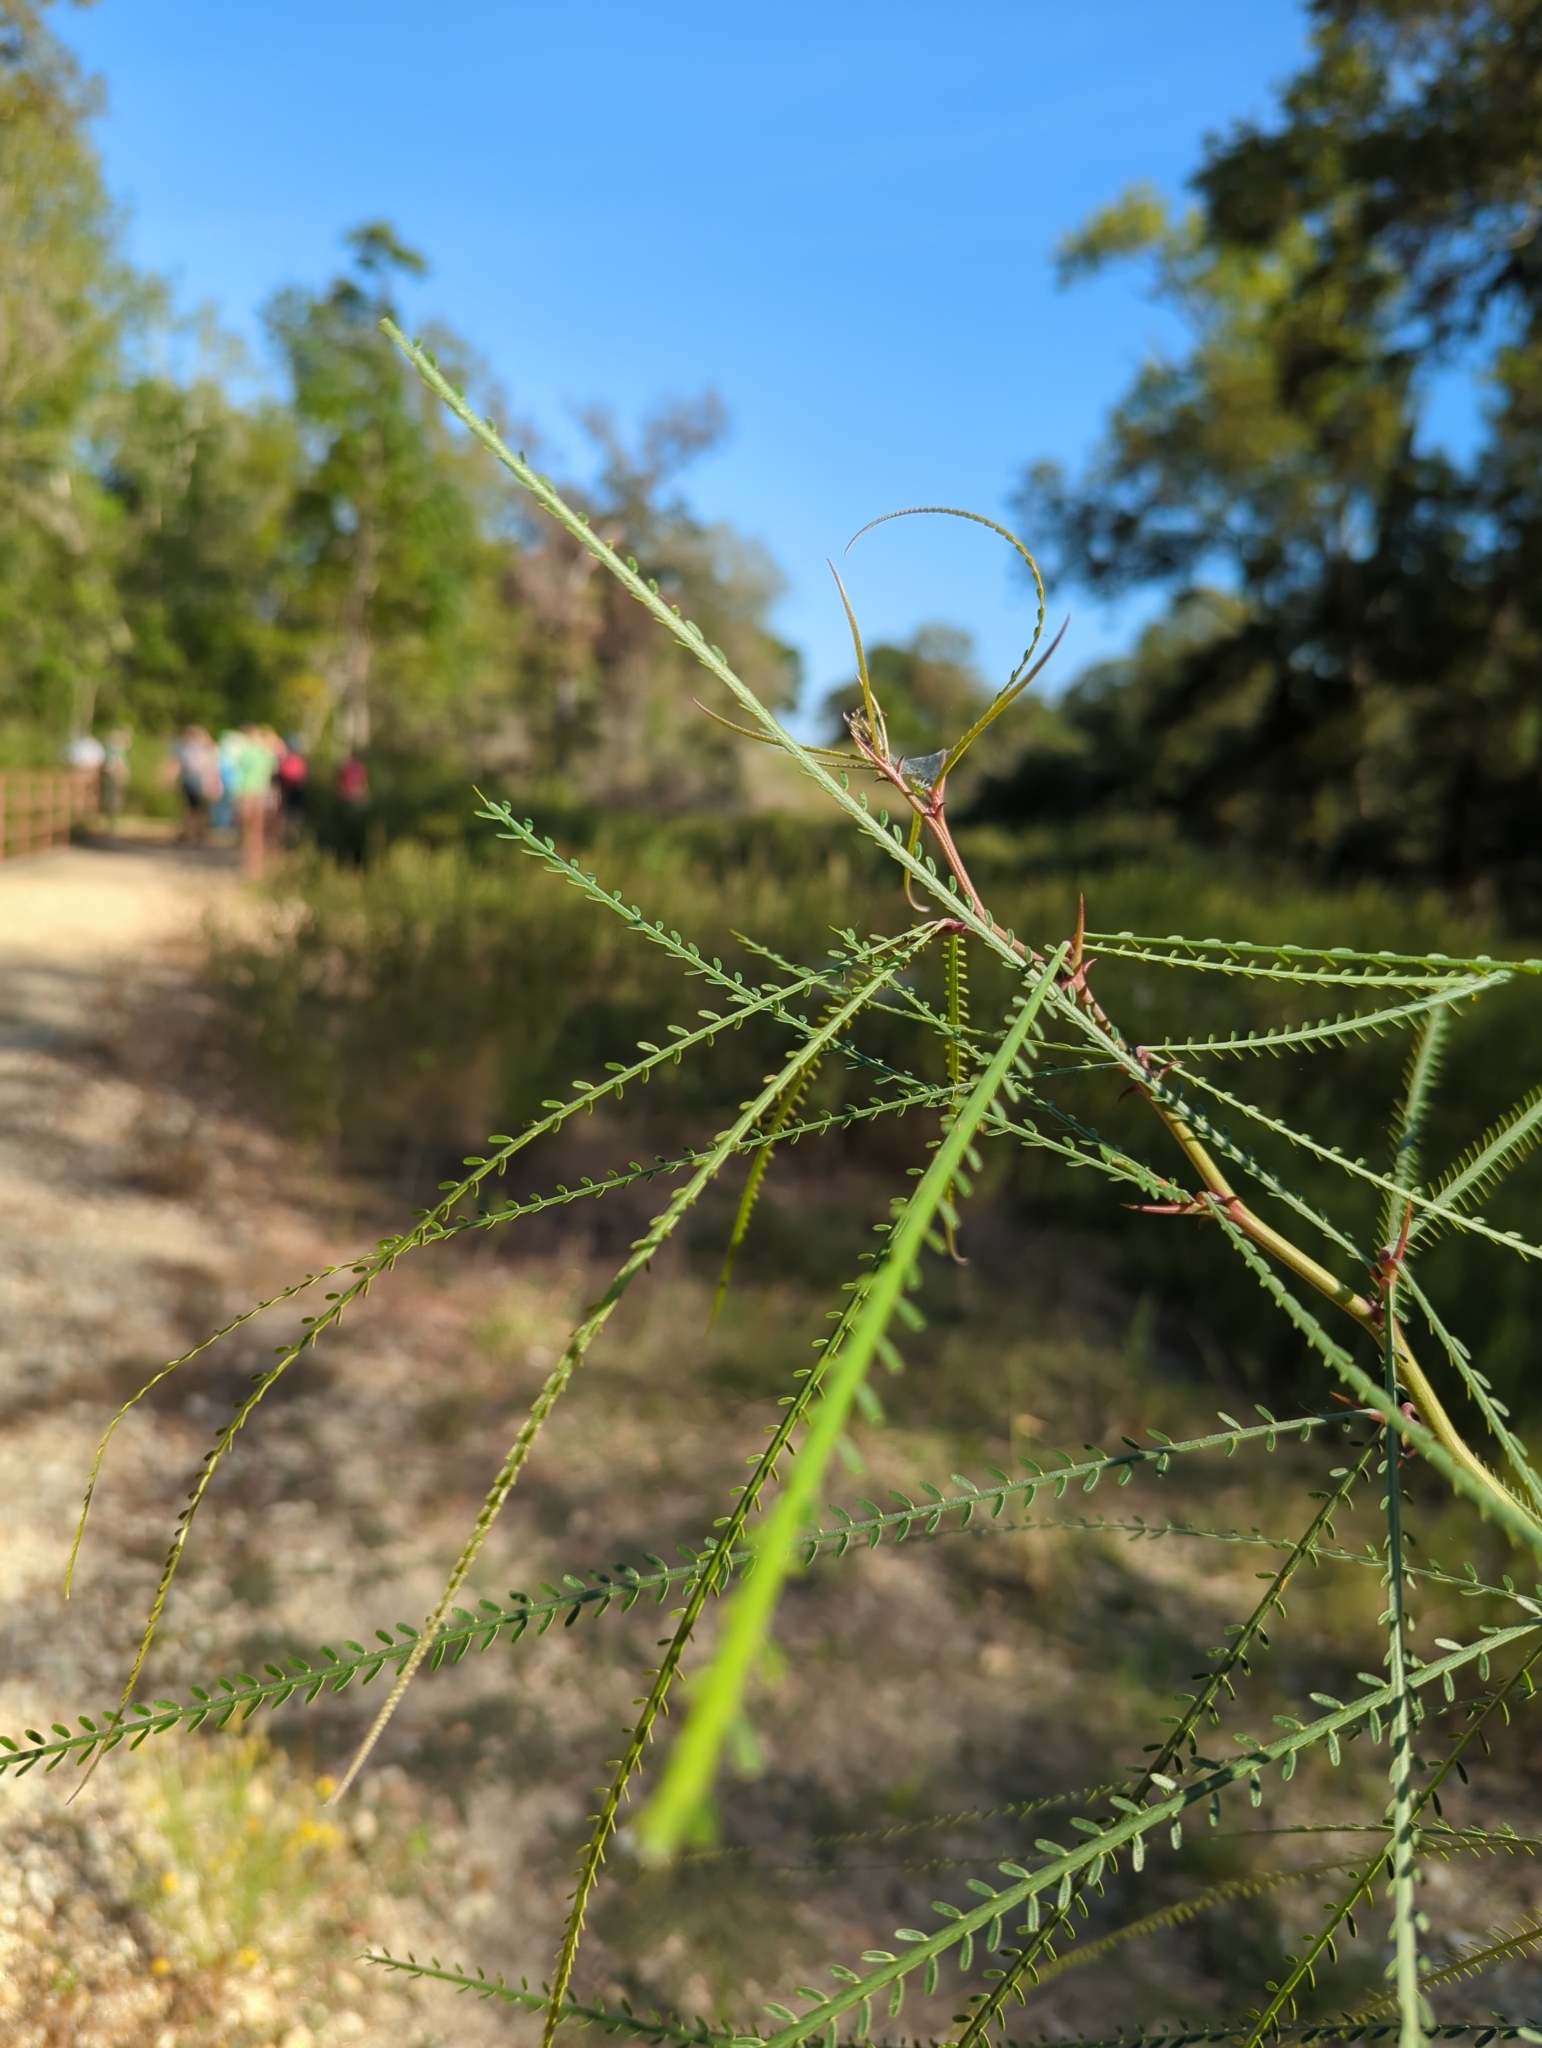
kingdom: Plantae
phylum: Tracheophyta
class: Magnoliopsida
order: Fabales
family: Fabaceae
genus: Parkinsonia
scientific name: Parkinsonia aculeata
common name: Jerusalem thorn
